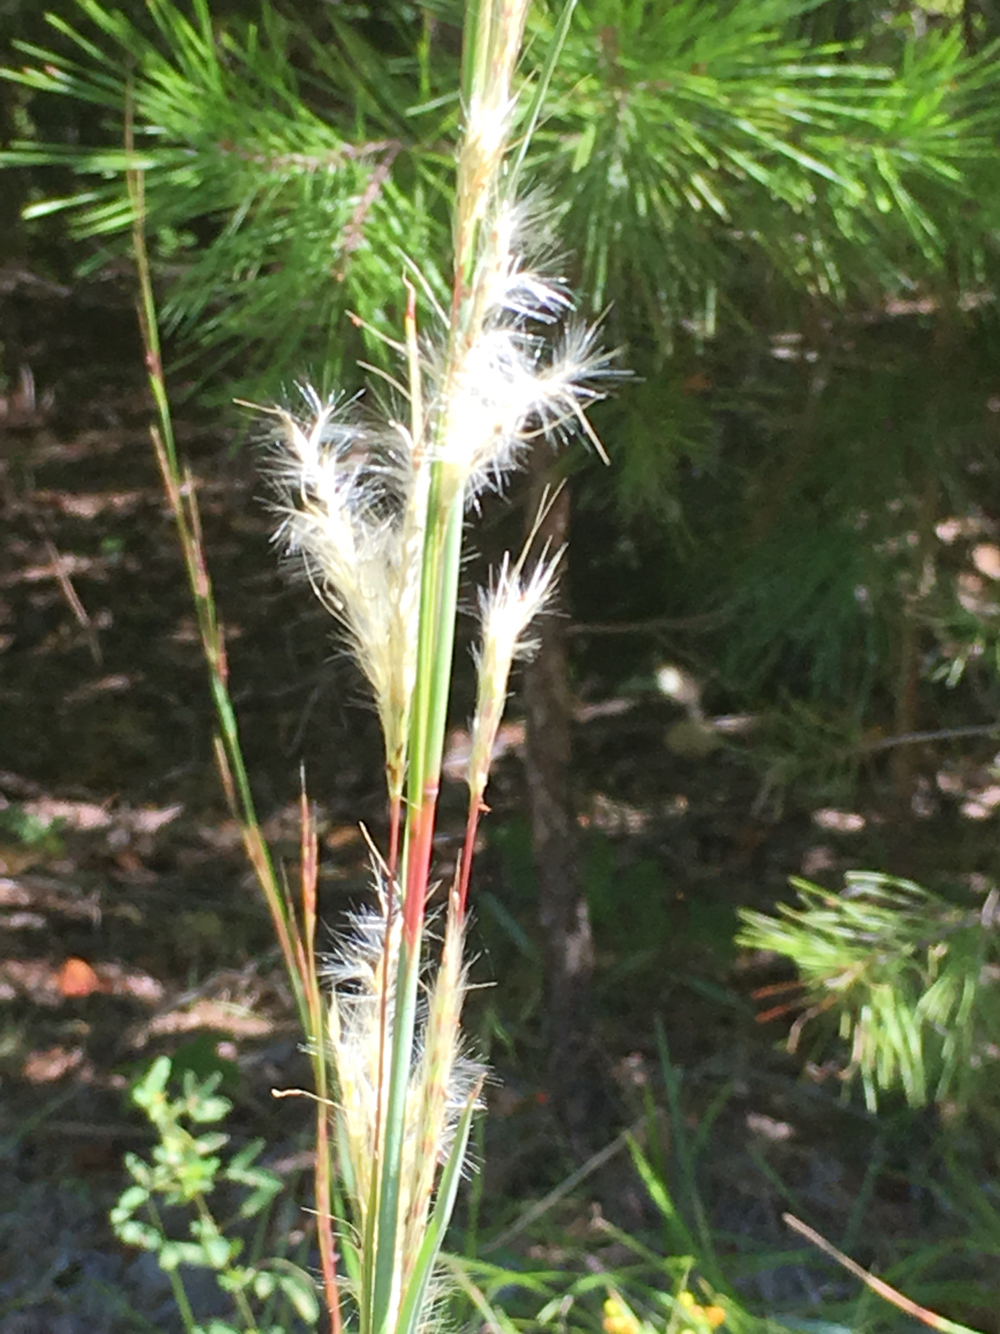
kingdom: Plantae
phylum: Tracheophyta
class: Liliopsida
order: Poales
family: Poaceae
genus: Andropogon
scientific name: Andropogon ternarius
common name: Split bluestem
